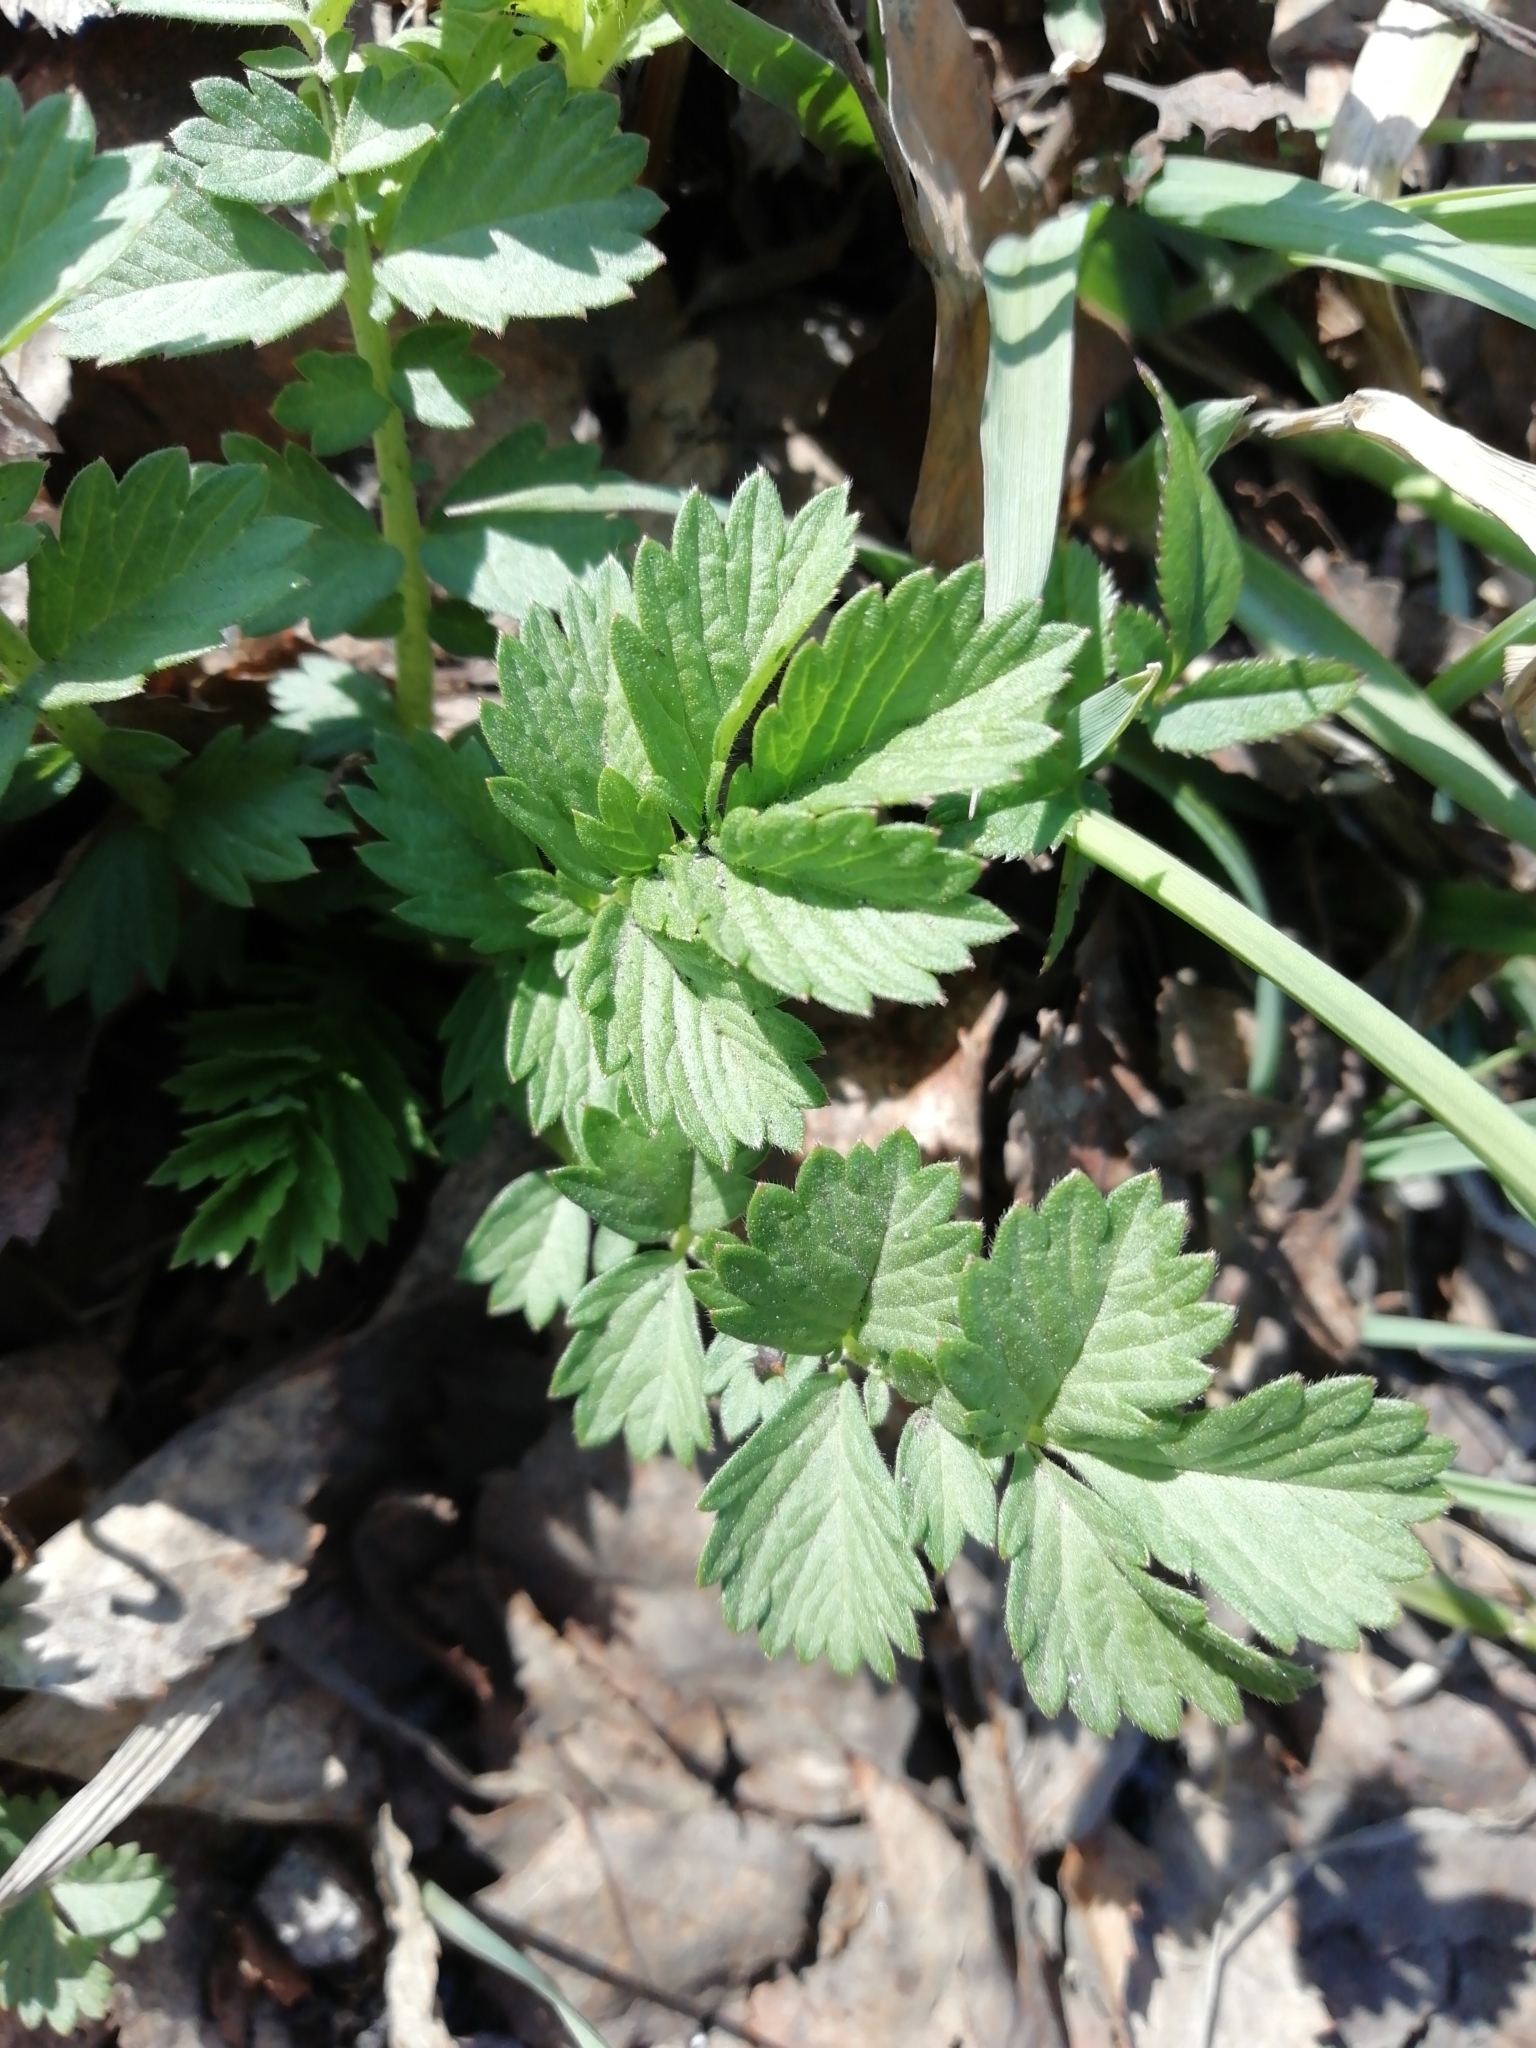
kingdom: Plantae
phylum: Tracheophyta
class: Magnoliopsida
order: Rosales
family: Rosaceae
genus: Agrimonia
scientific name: Agrimonia pilosa
